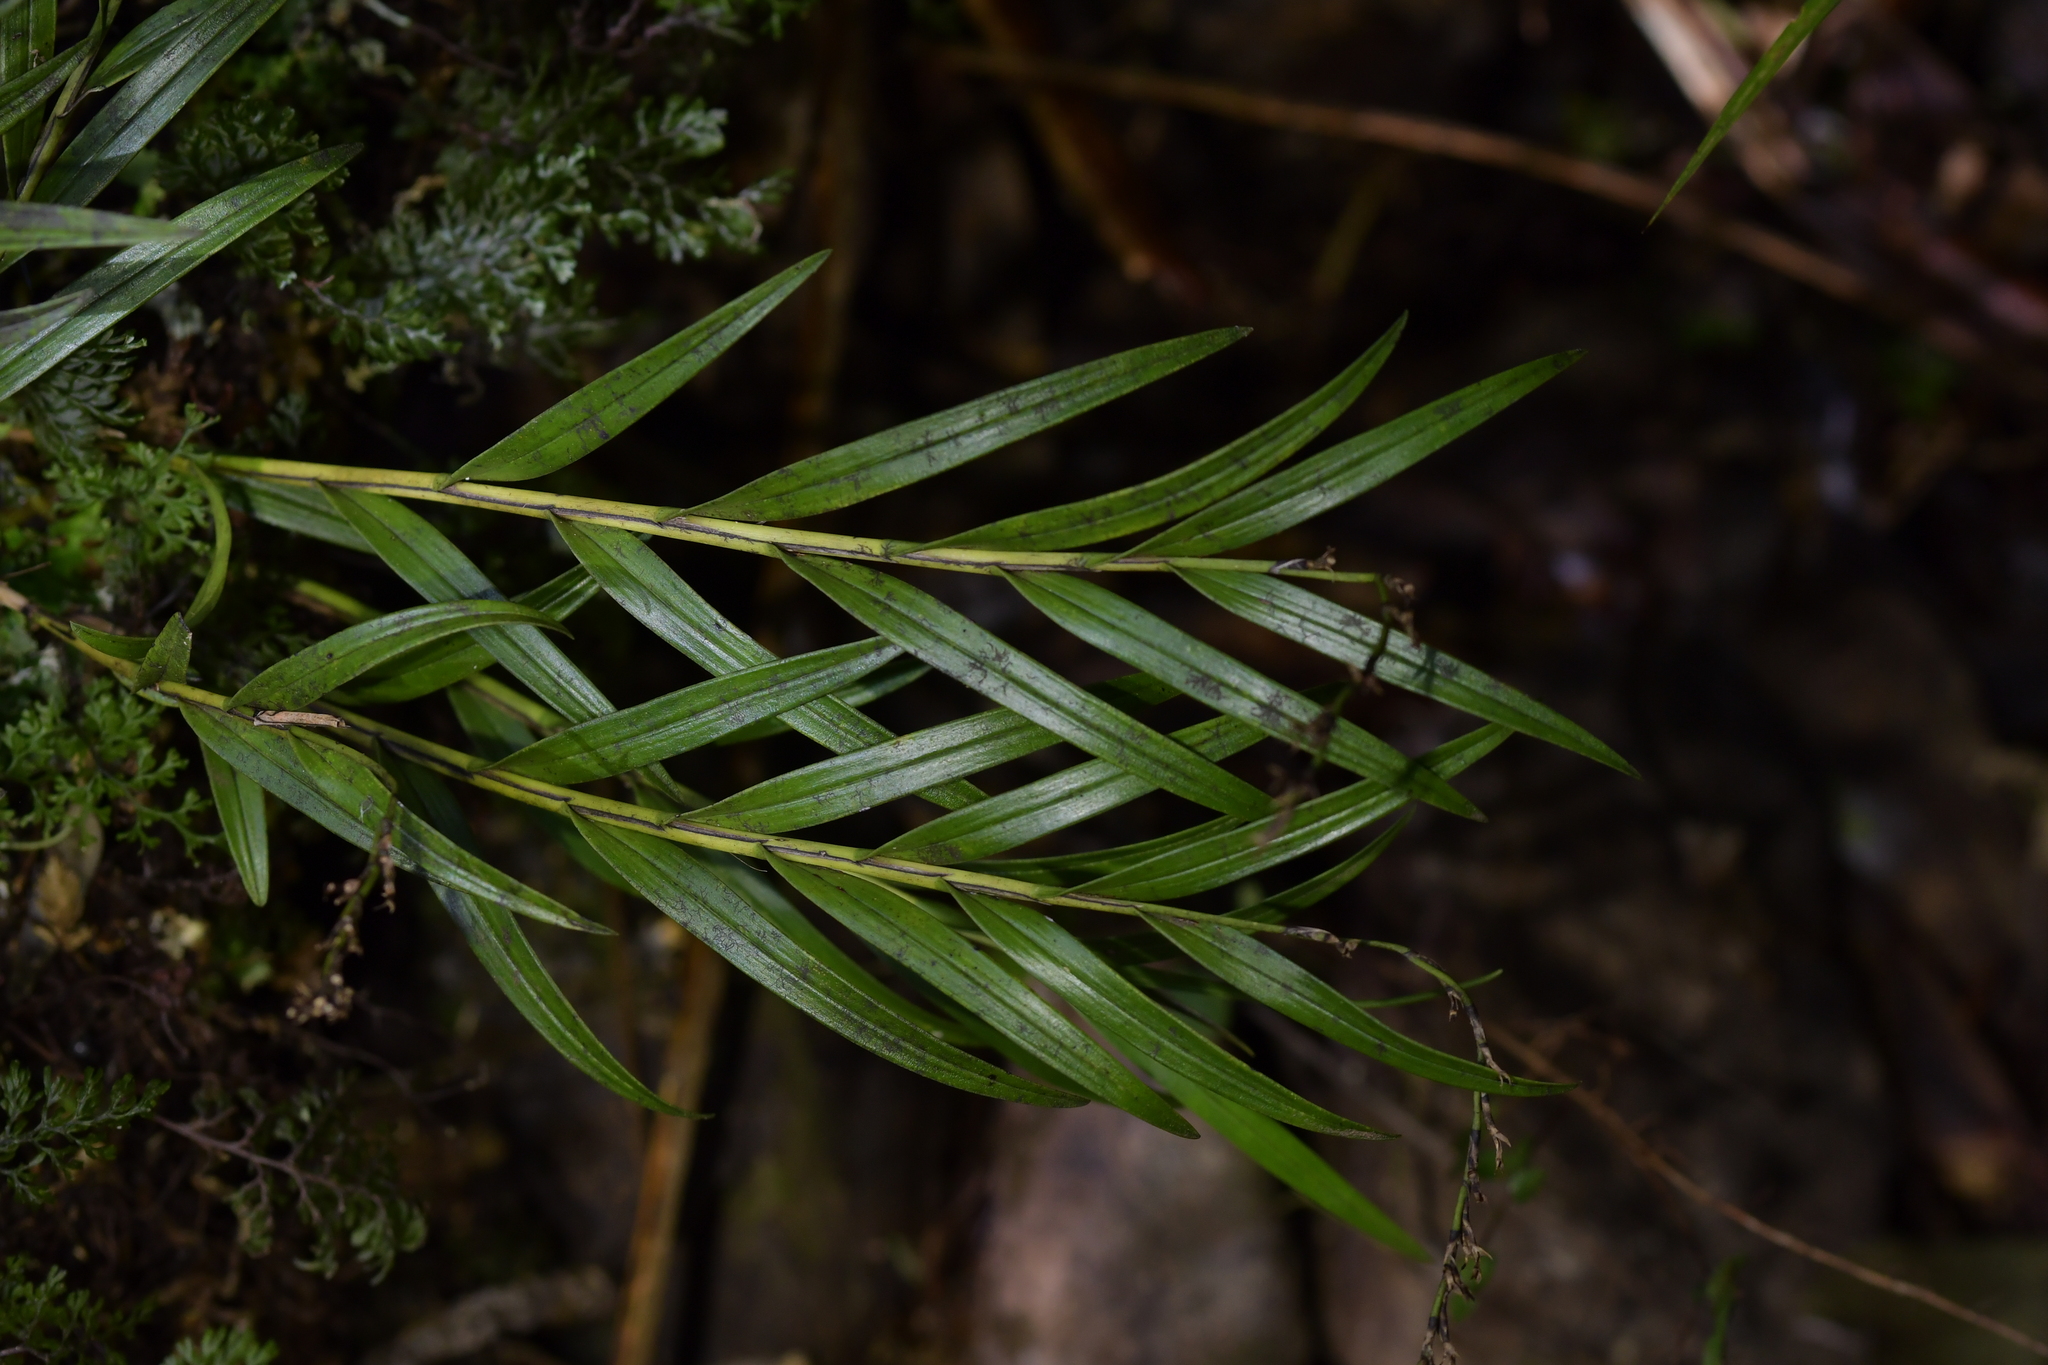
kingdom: Plantae
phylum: Tracheophyta
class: Liliopsida
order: Asparagales
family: Orchidaceae
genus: Earina
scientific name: Earina autumnalis
